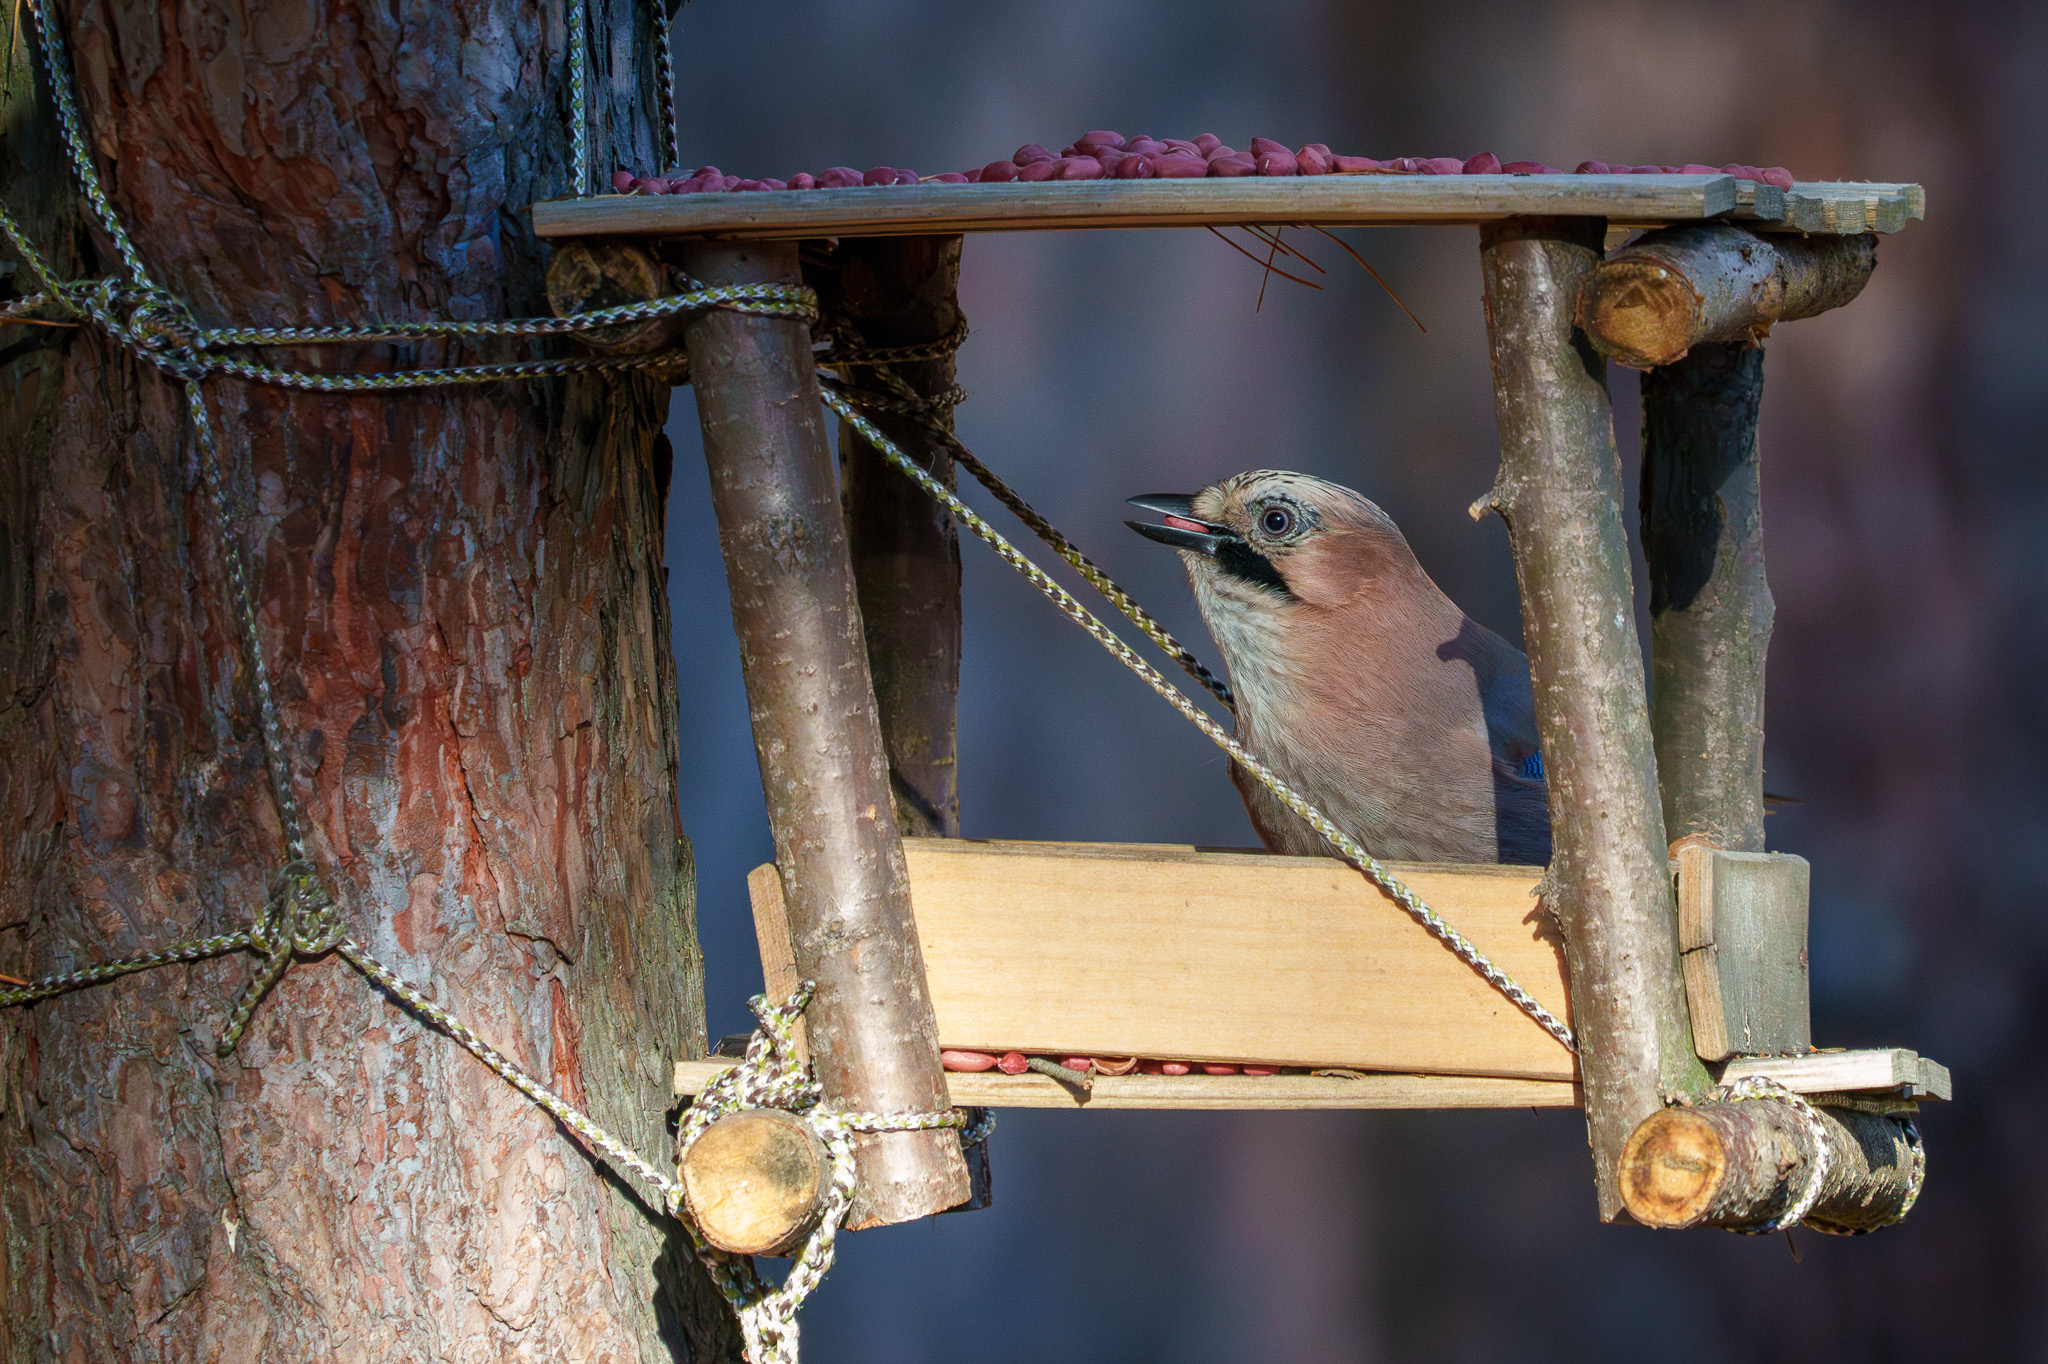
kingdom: Animalia
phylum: Chordata
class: Aves
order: Passeriformes
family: Corvidae
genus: Garrulus
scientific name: Garrulus glandarius
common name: Eurasian jay
